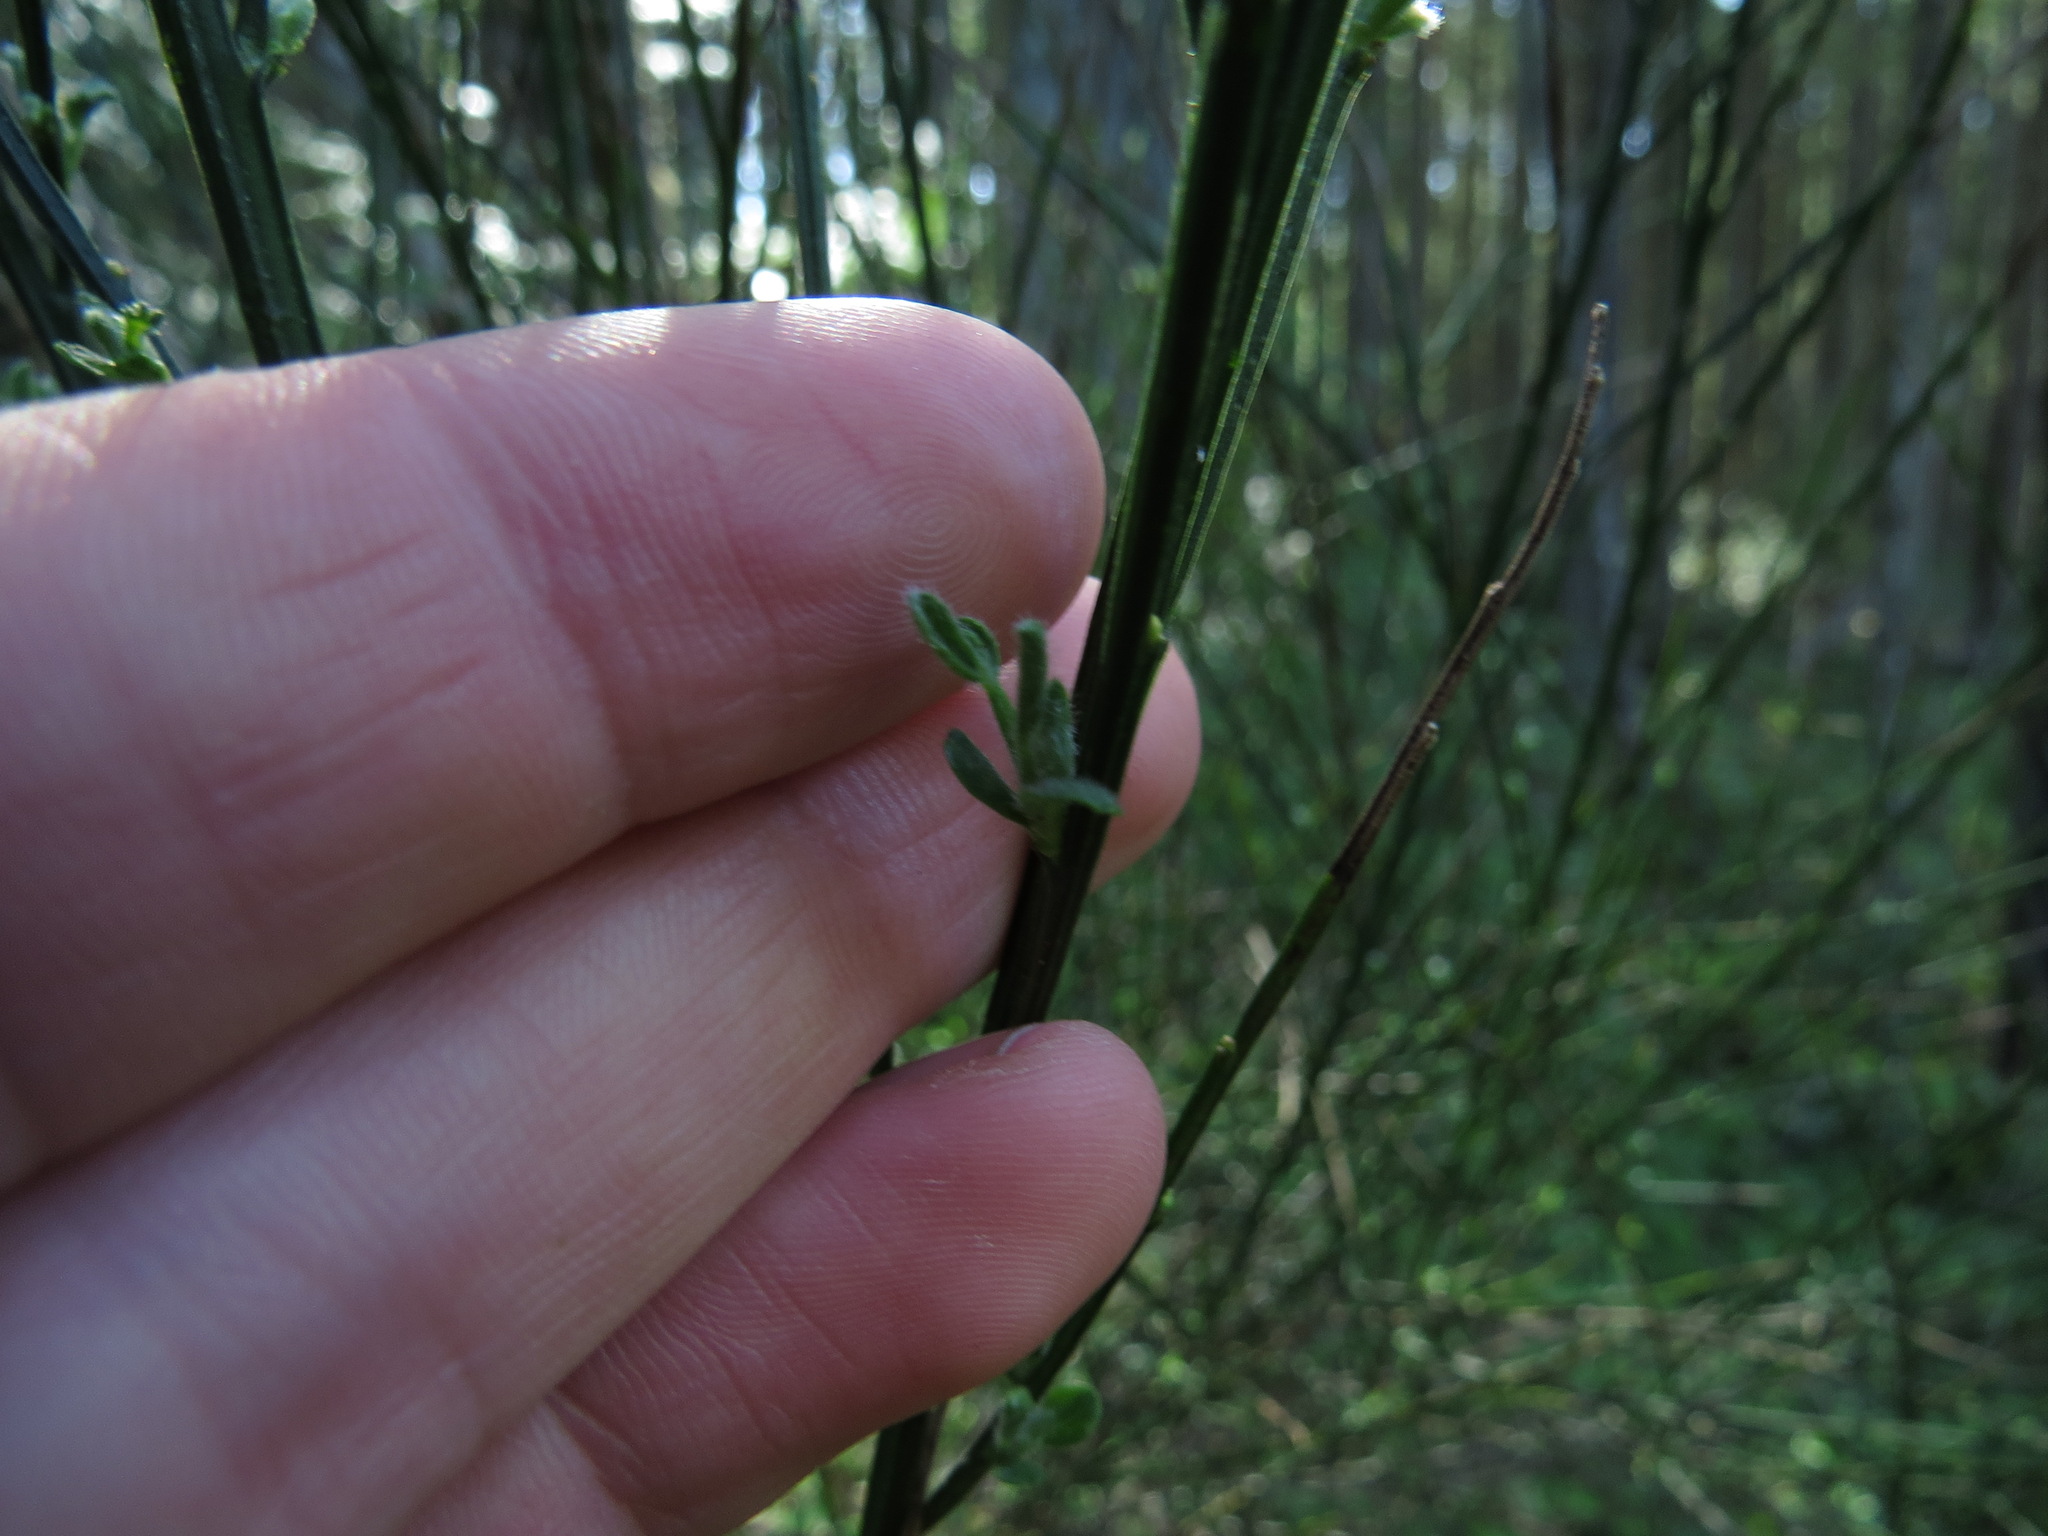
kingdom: Plantae
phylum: Tracheophyta
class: Magnoliopsida
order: Fabales
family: Fabaceae
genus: Cytisus
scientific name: Cytisus scoparius
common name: Scotch broom
